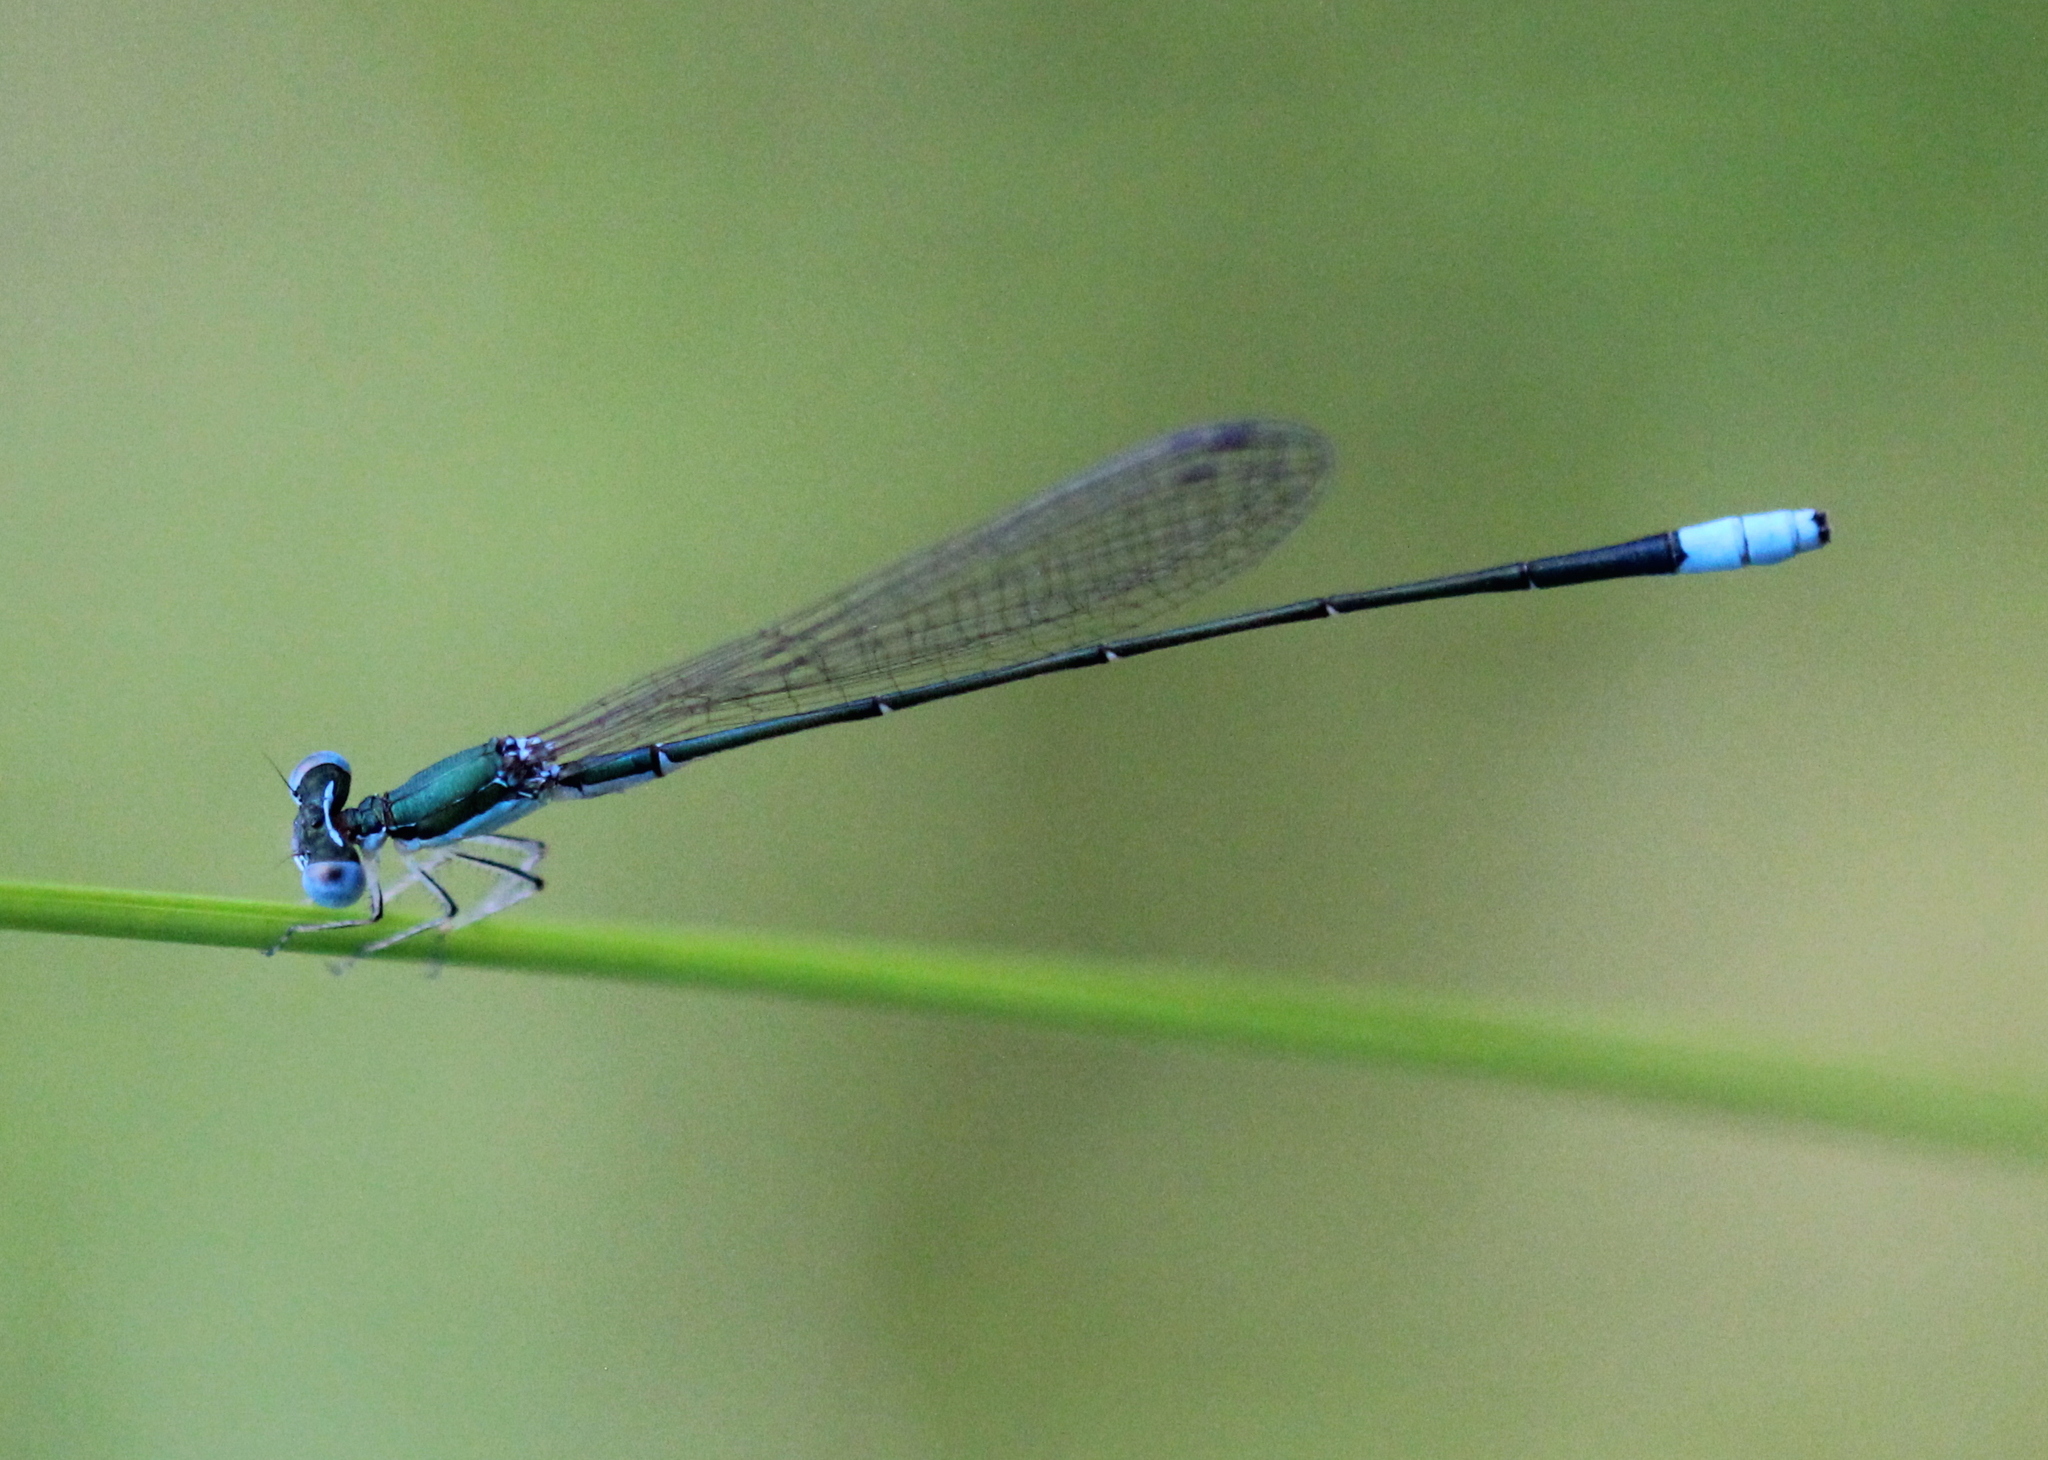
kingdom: Animalia
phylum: Arthropoda
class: Insecta
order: Odonata
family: Coenagrionidae
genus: Nehalennia
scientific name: Nehalennia gracilis
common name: Sphagnum sprite
